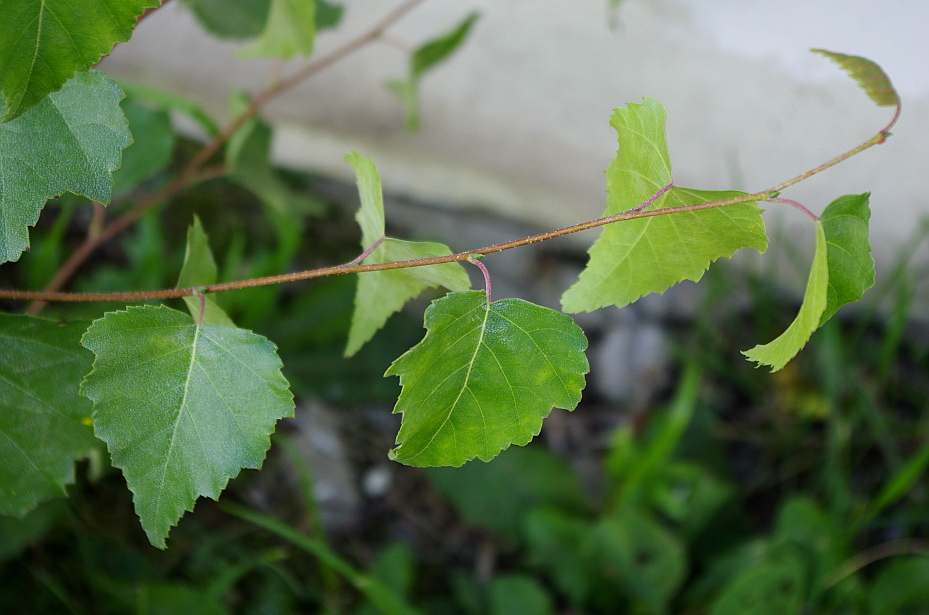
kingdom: Plantae
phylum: Tracheophyta
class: Magnoliopsida
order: Fagales
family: Betulaceae
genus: Betula
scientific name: Betula pendula
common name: Silver birch
